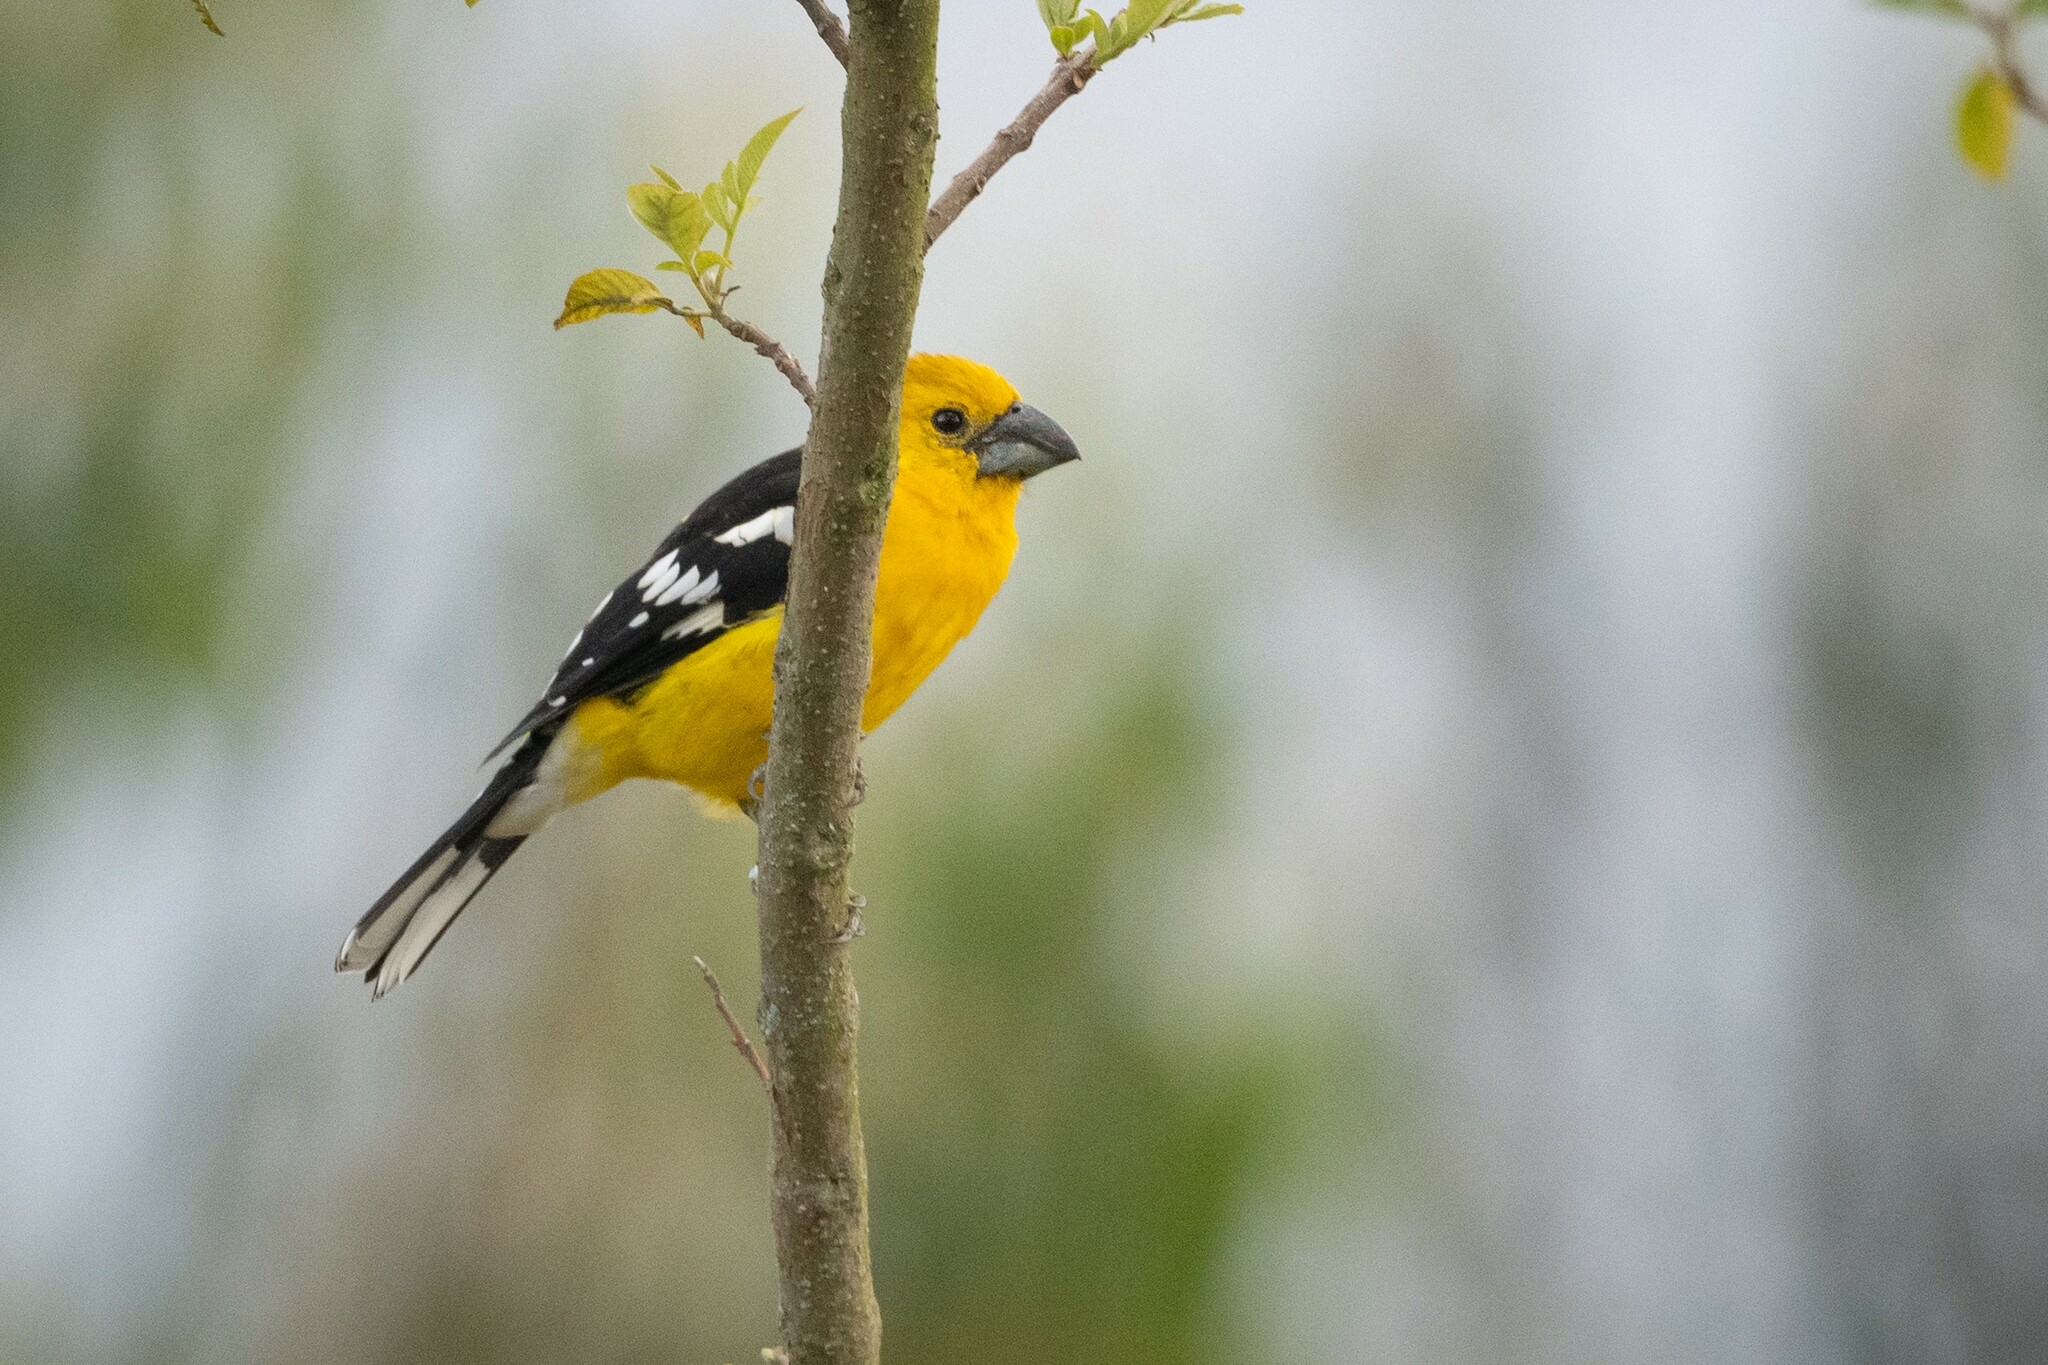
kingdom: Animalia
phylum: Chordata
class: Aves
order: Passeriformes
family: Cardinalidae
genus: Pheucticus
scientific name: Pheucticus chrysogaster
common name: Golden grosbeak
